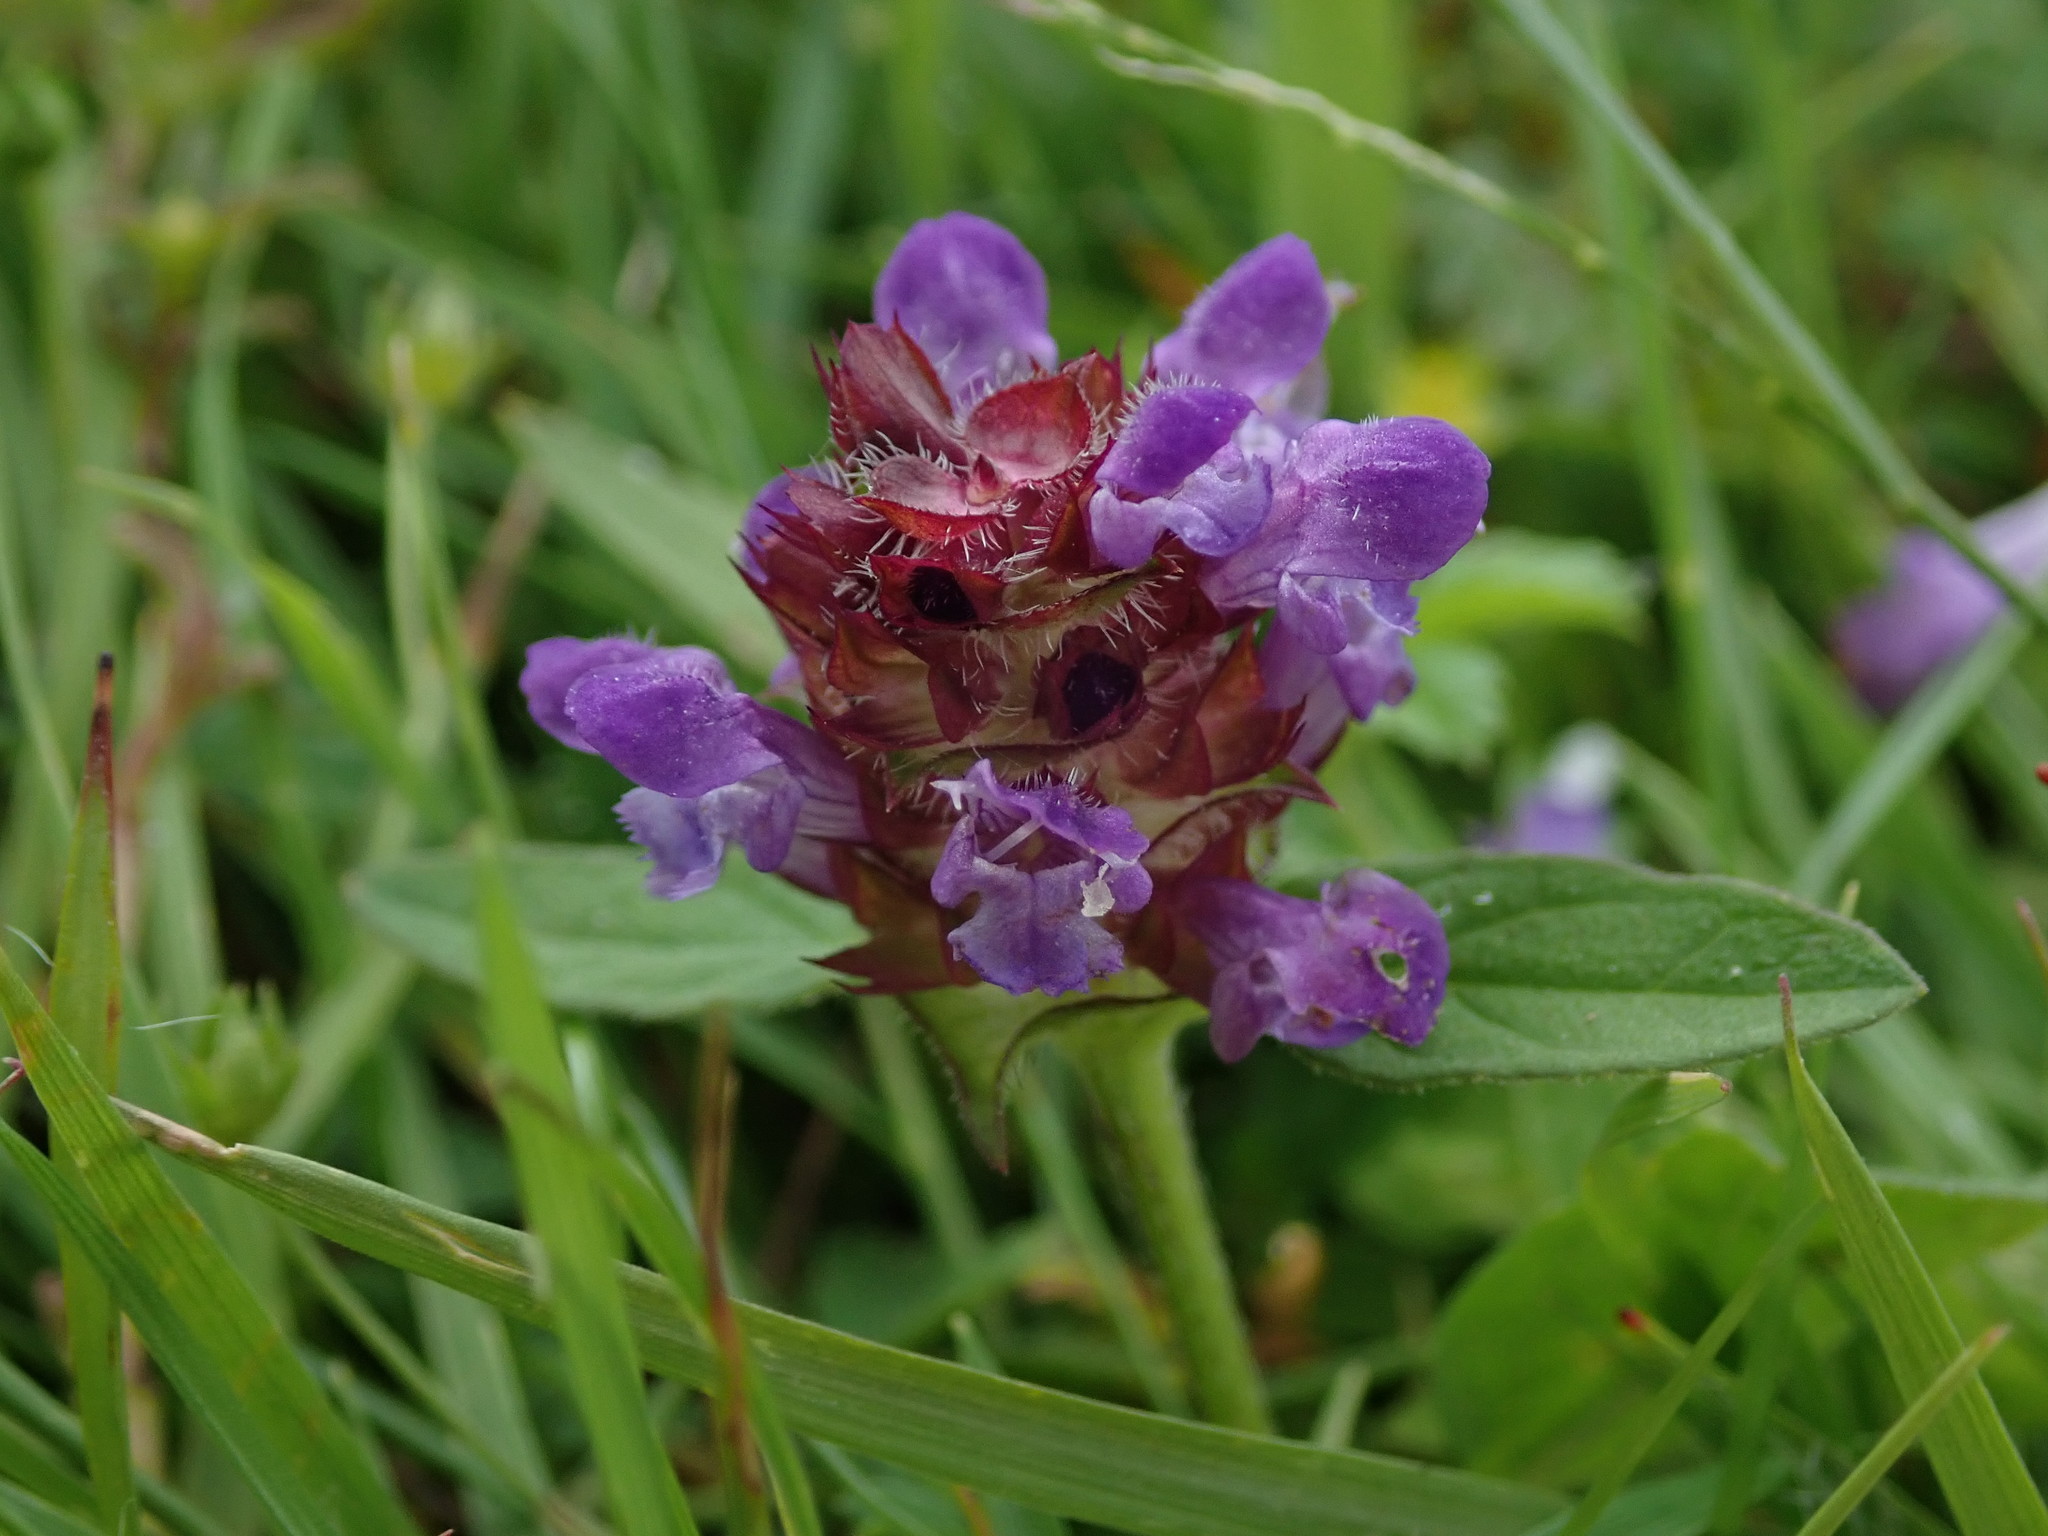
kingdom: Plantae
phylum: Tracheophyta
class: Magnoliopsida
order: Lamiales
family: Lamiaceae
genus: Prunella
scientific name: Prunella vulgaris
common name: Heal-all
